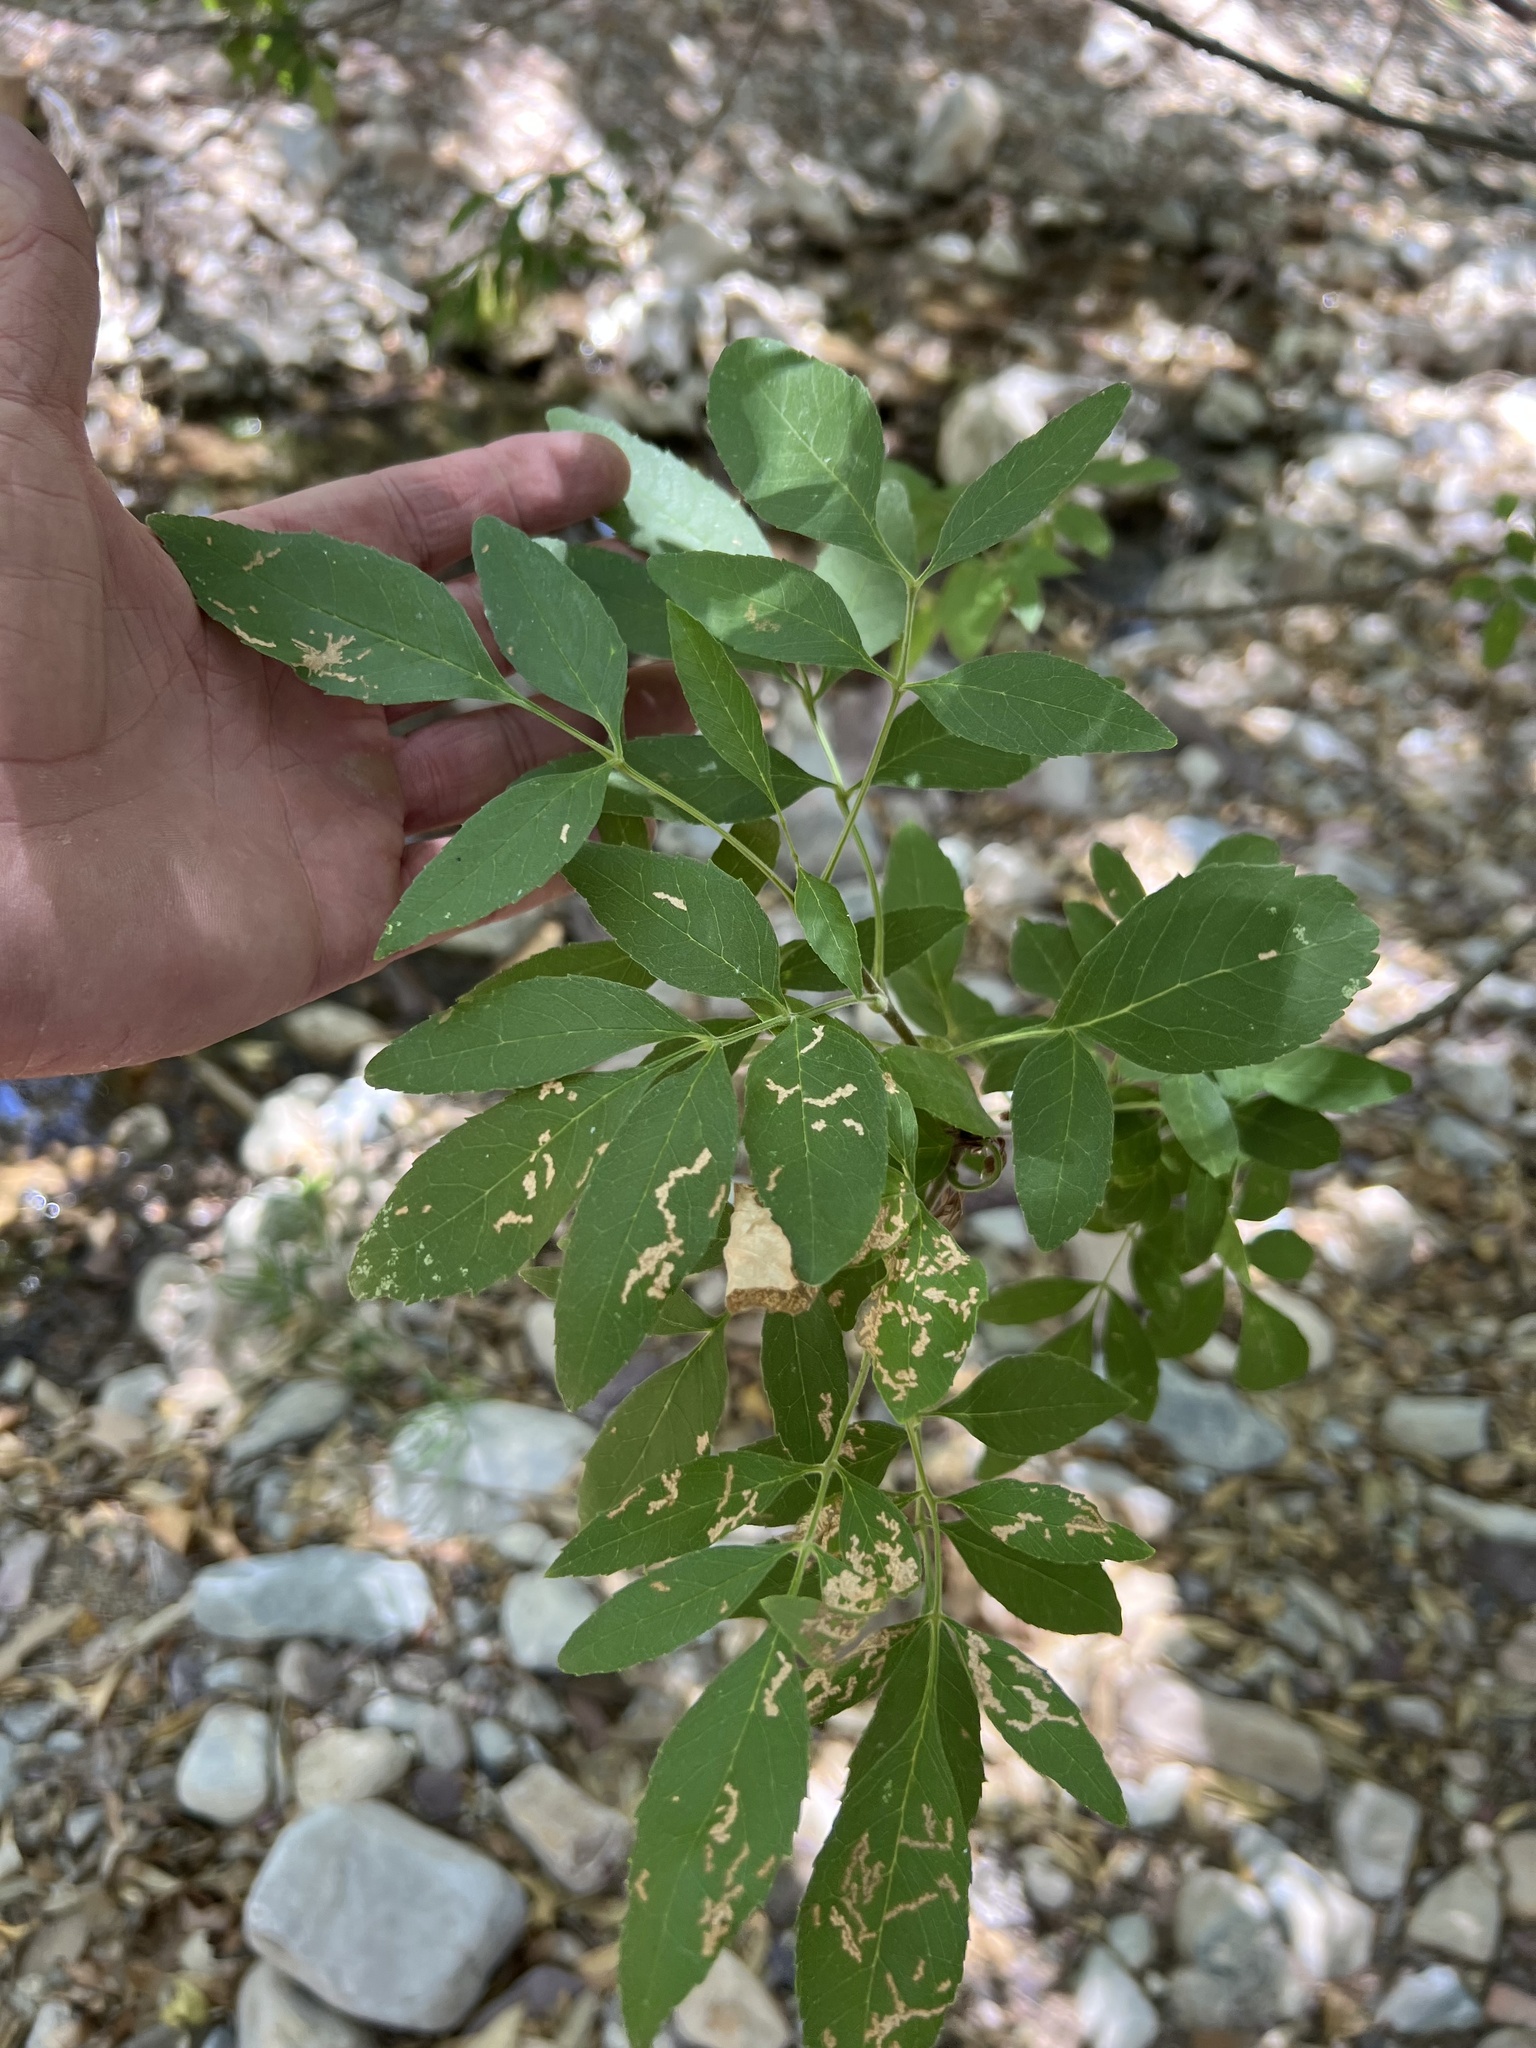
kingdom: Plantae
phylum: Tracheophyta
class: Magnoliopsida
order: Lamiales
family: Oleaceae
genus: Fraxinus
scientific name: Fraxinus velutina
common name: Arizon ash
